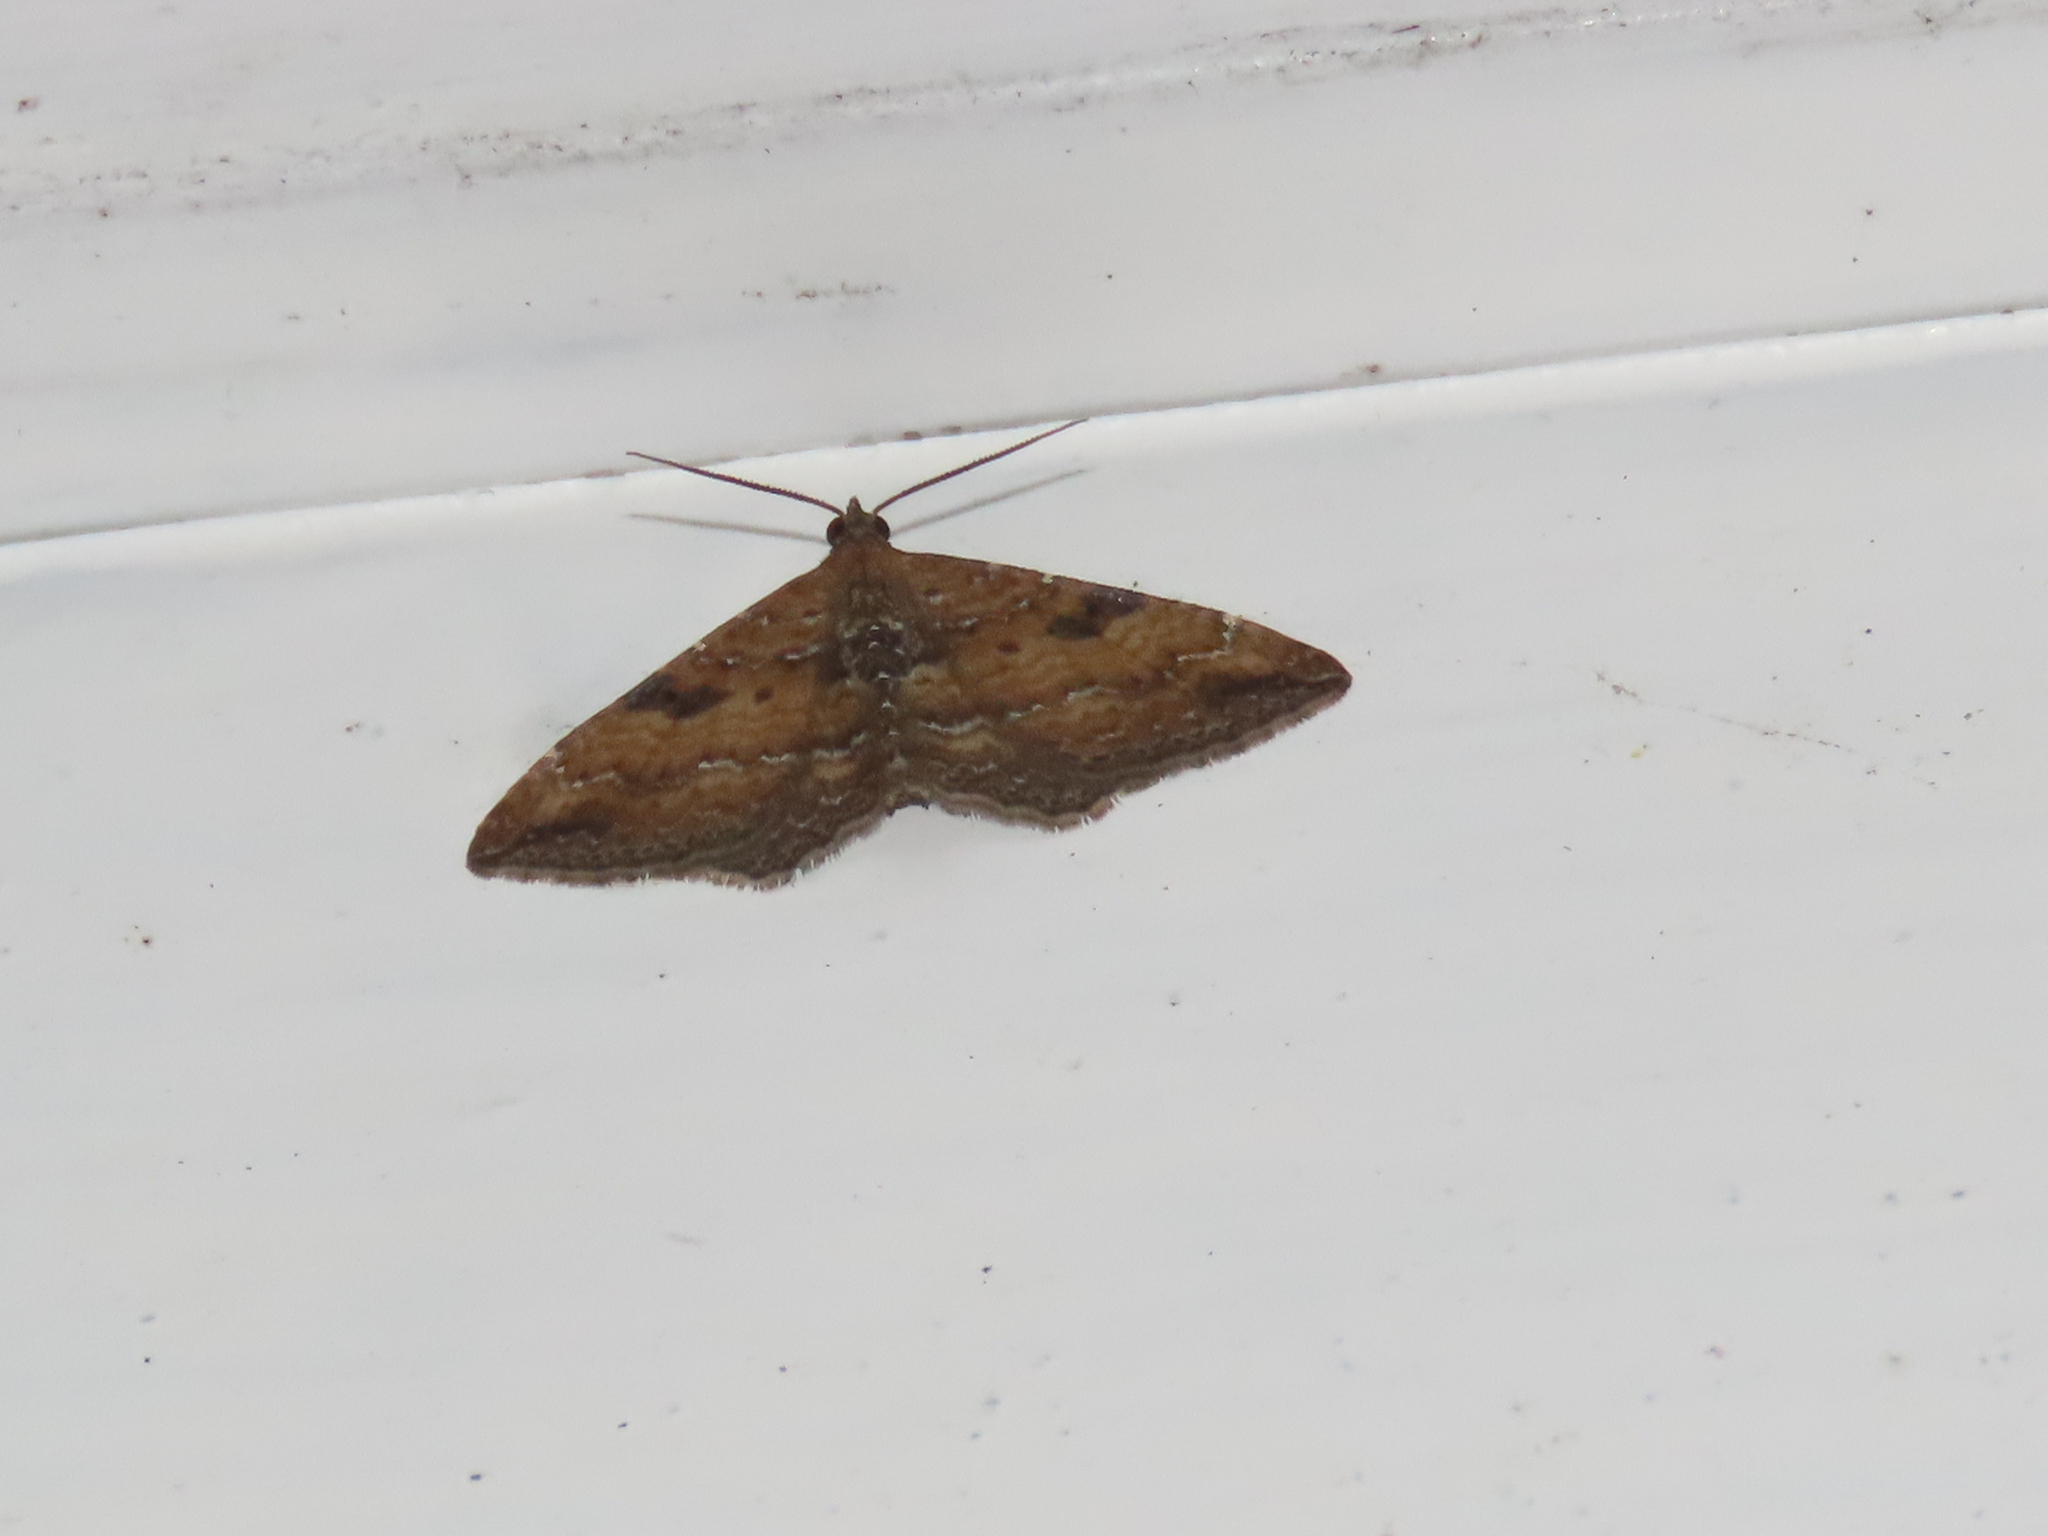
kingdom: Animalia
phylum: Arthropoda
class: Insecta
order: Lepidoptera
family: Geometridae
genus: Orthonama
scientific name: Orthonama obstipata
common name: The gem
